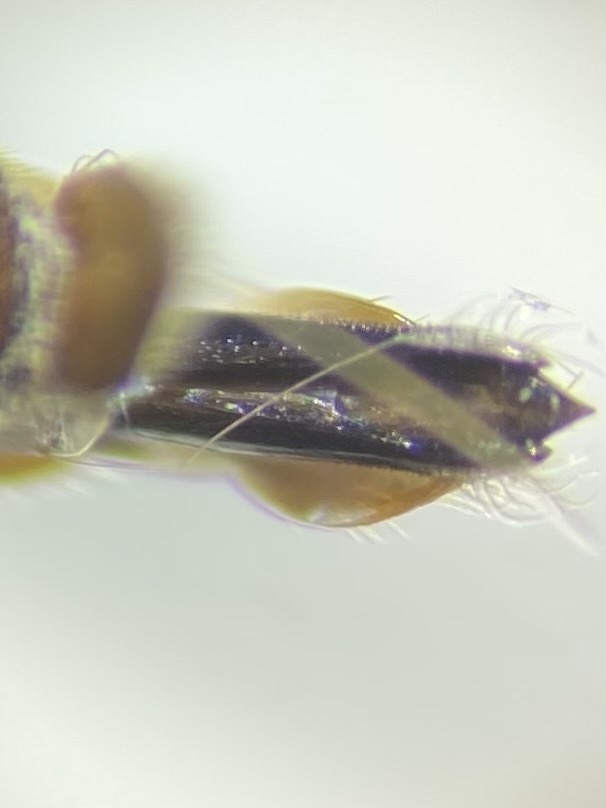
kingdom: Animalia
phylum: Arthropoda
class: Insecta
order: Coleoptera
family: Buprestidae
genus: Agrilus
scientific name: Agrilus masculinus
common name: Maple agrilus
